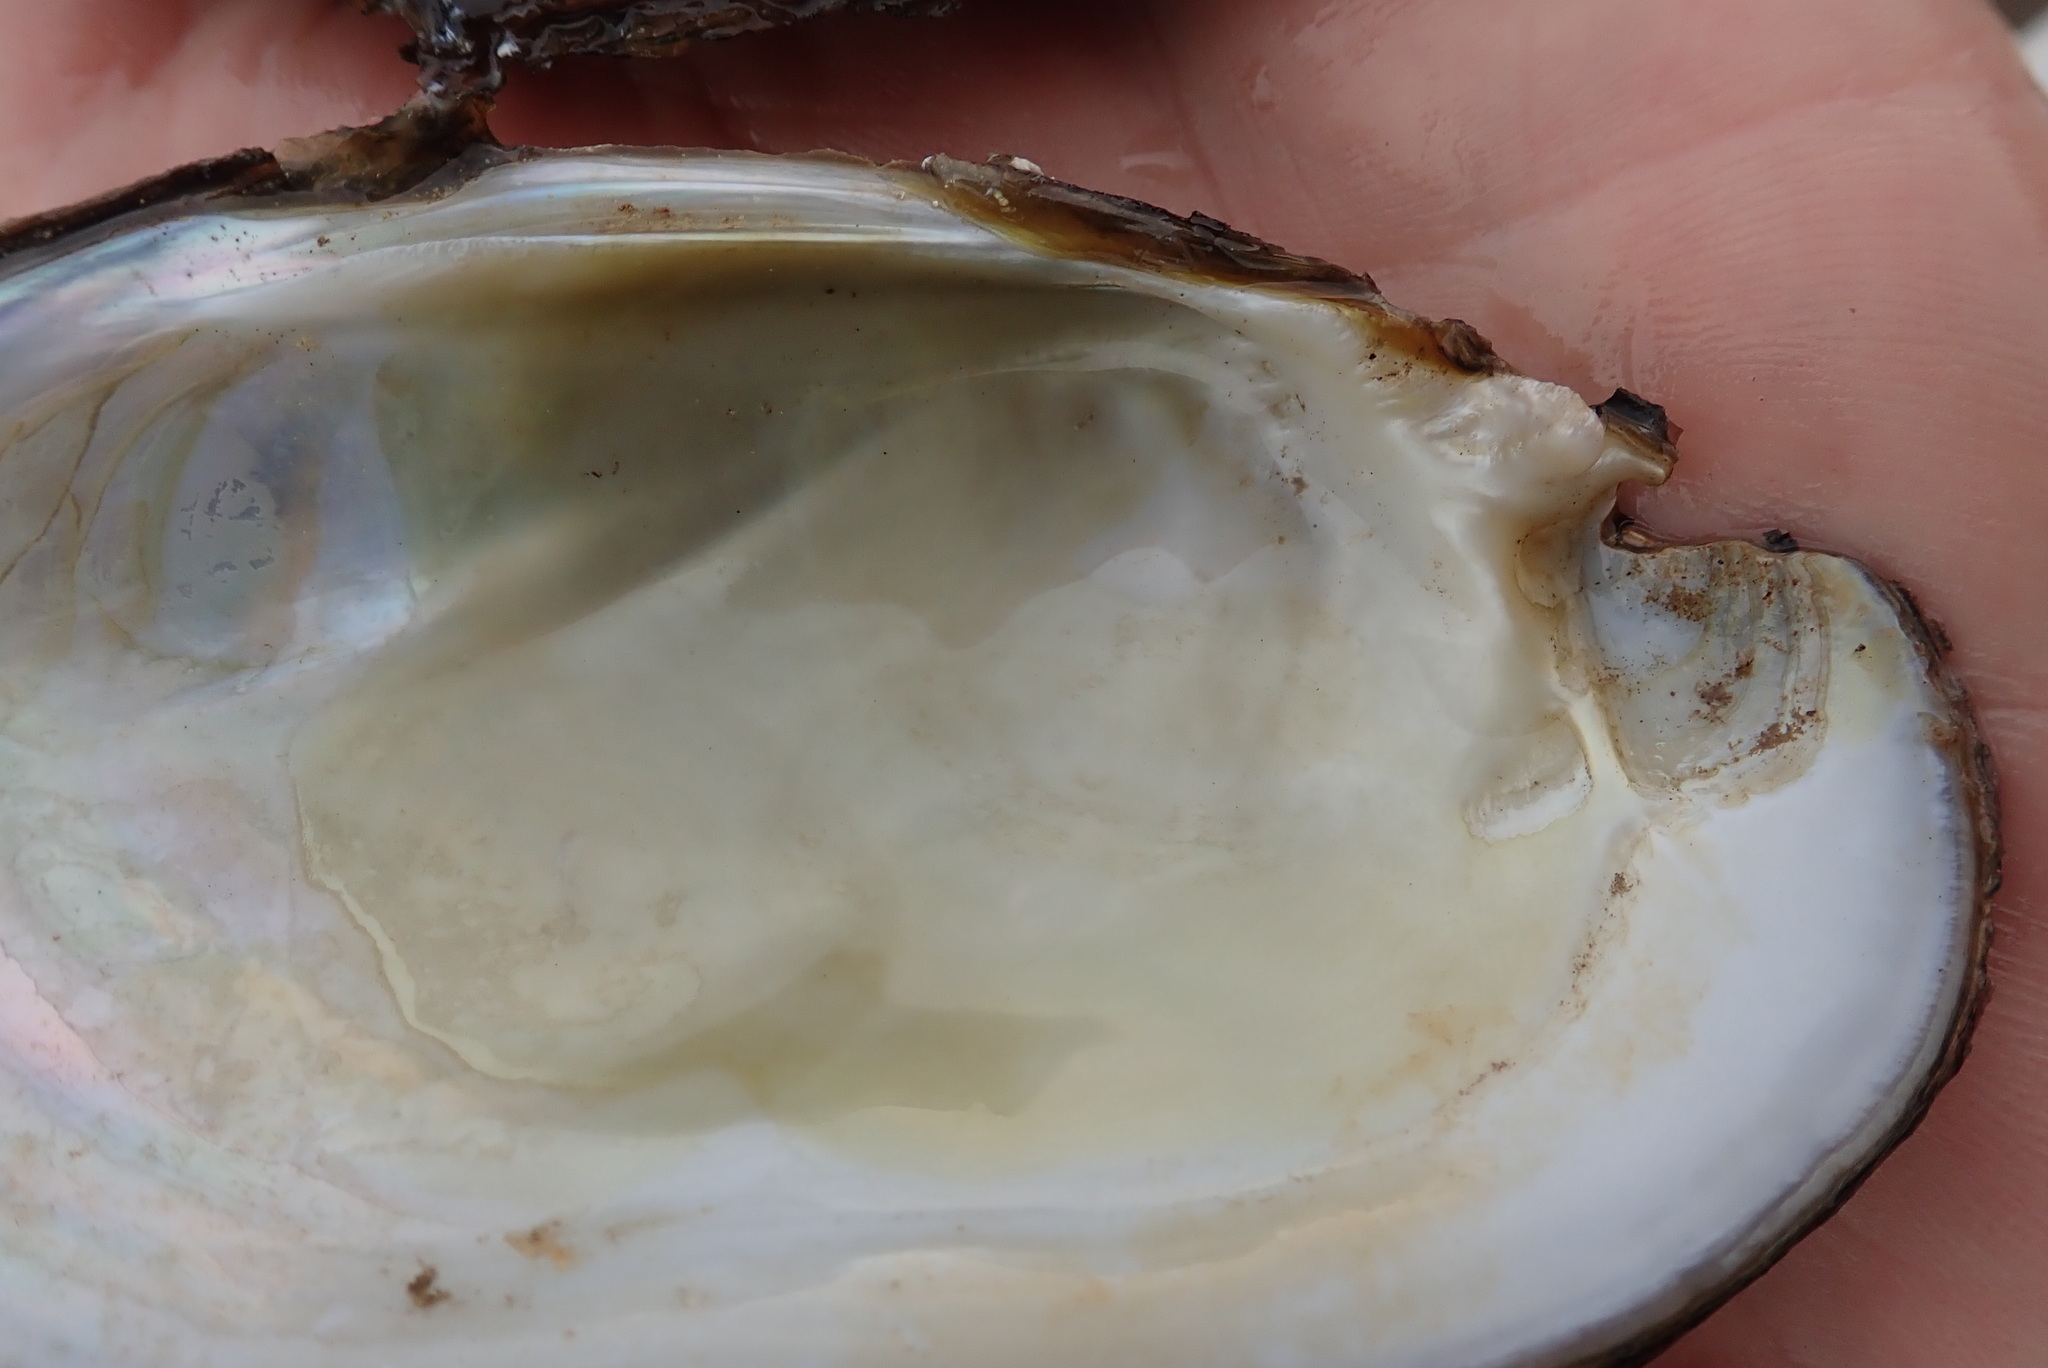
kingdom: Animalia
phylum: Mollusca
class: Bivalvia
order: Unionida
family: Unionidae
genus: Lampsilis
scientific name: Lampsilis siliquoidea
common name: Fatmucket
